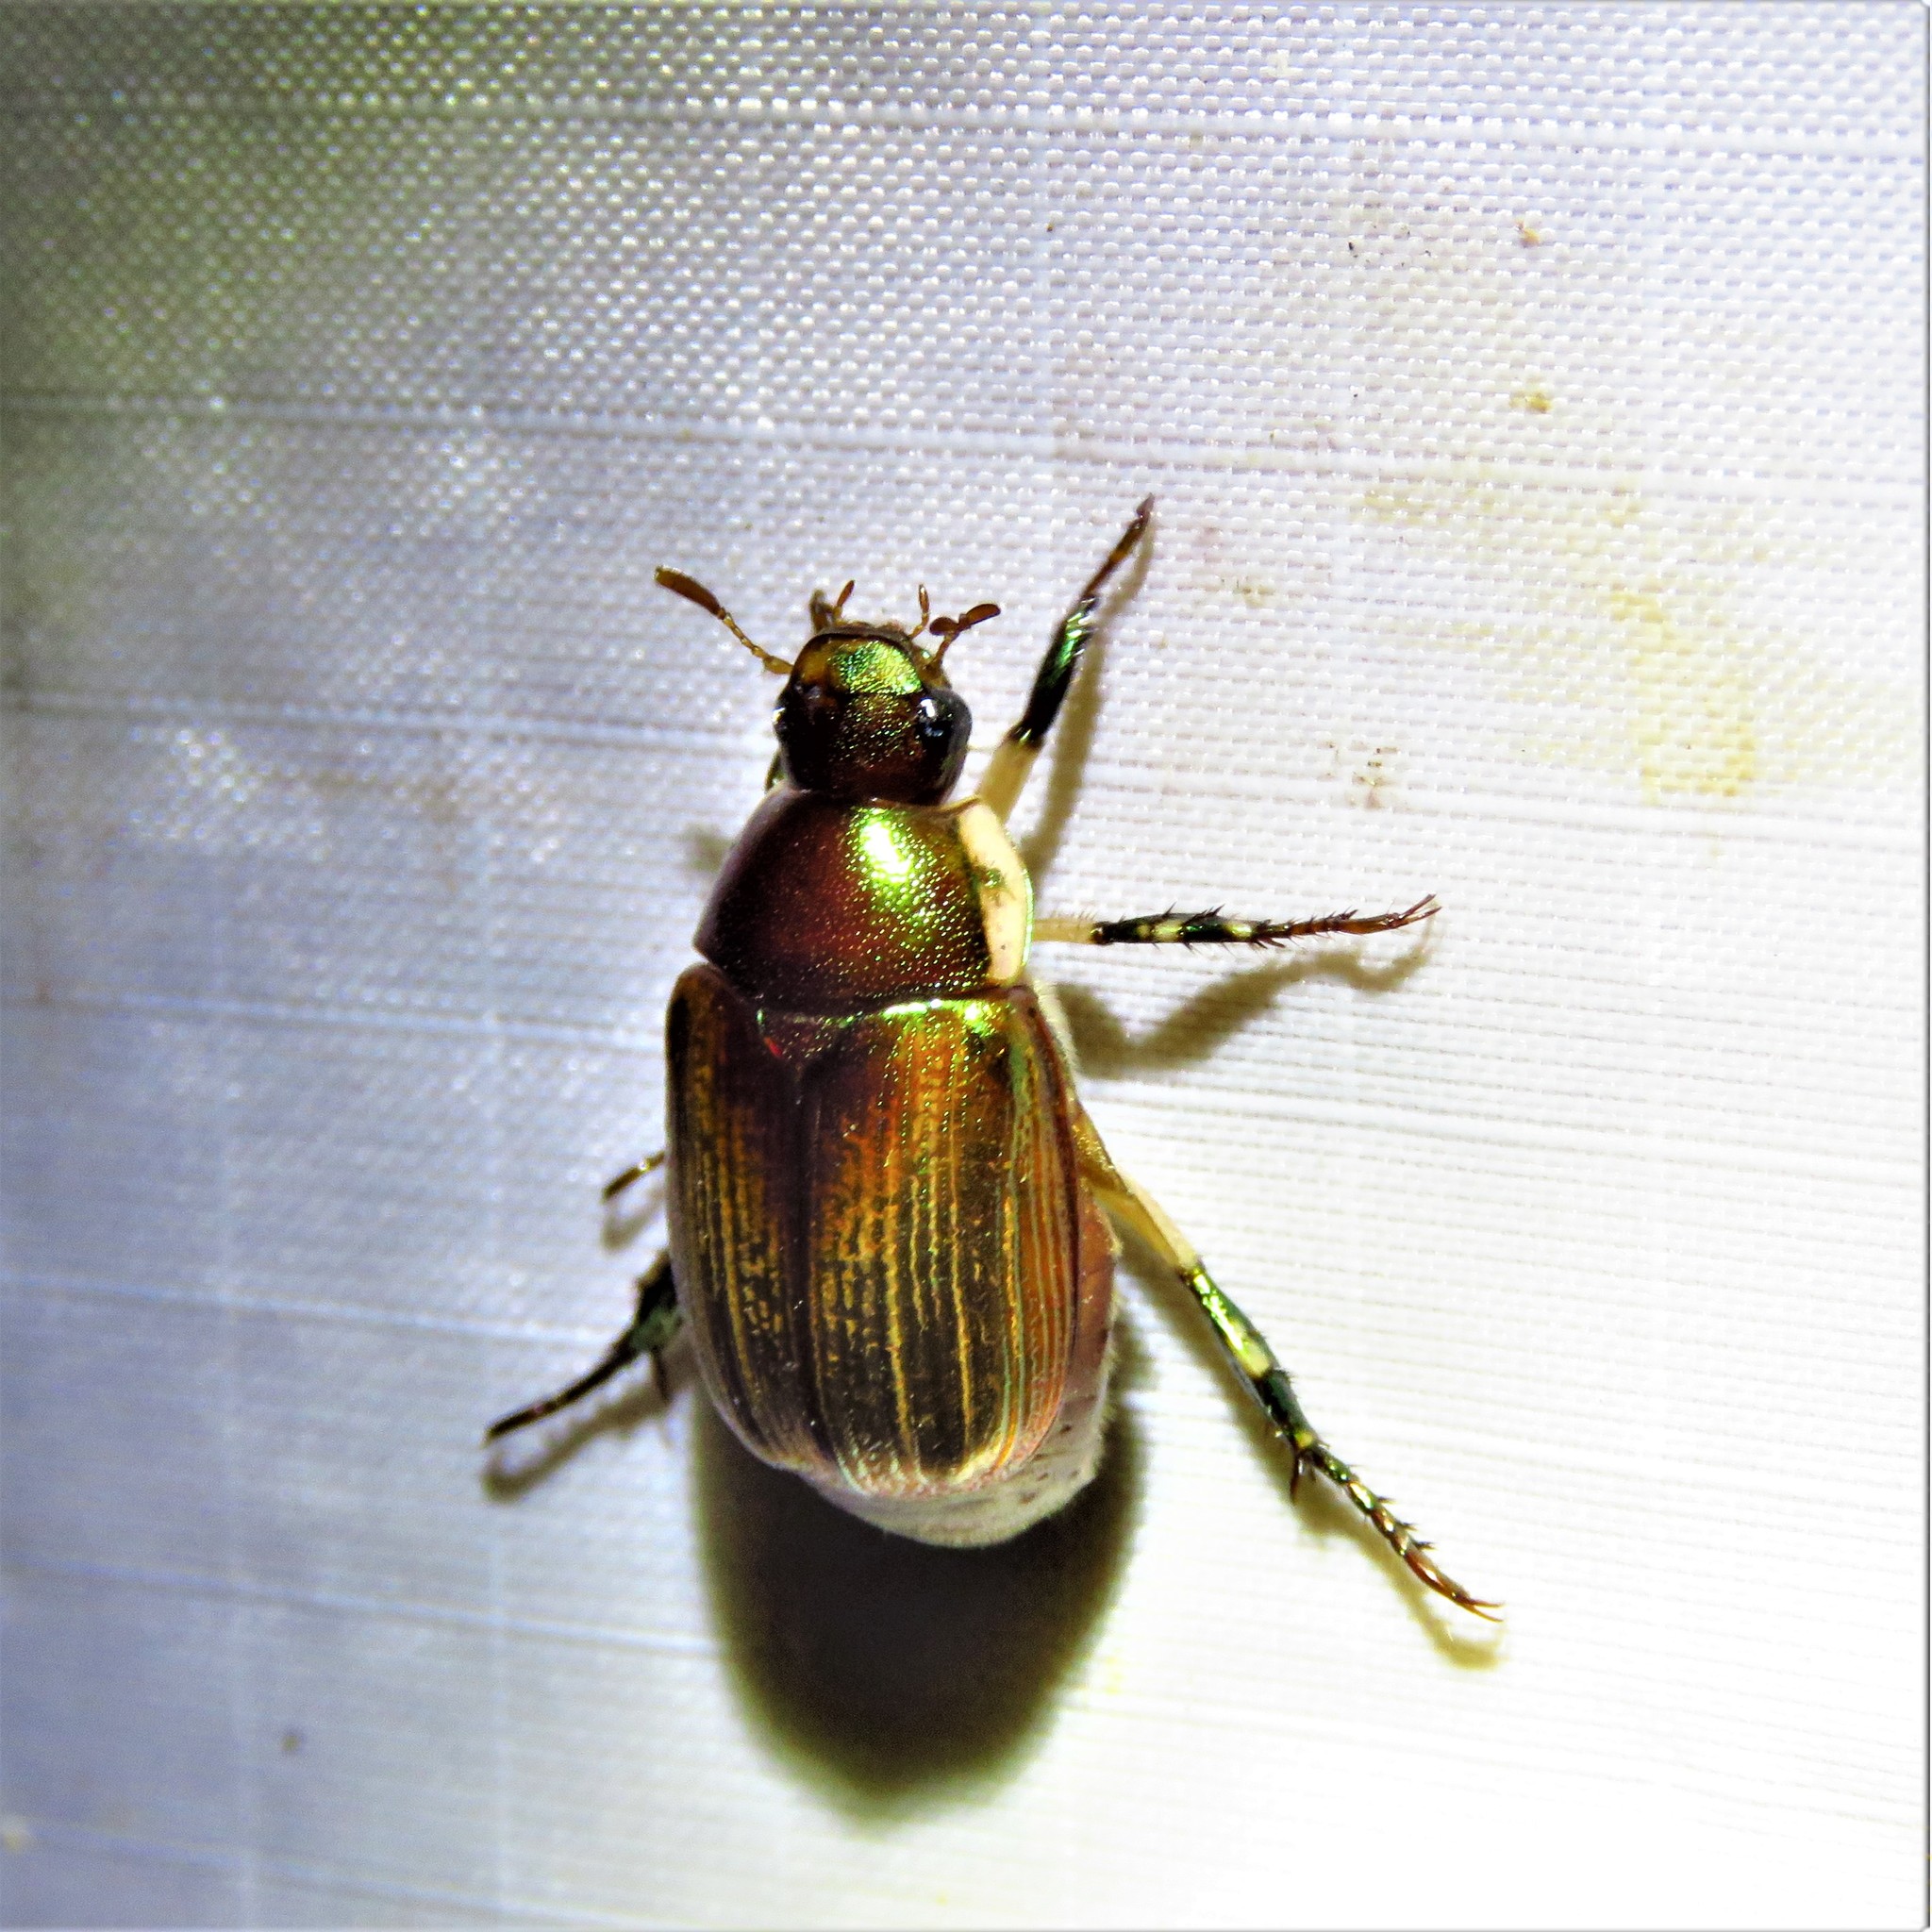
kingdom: Animalia
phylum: Arthropoda
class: Insecta
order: Coleoptera
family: Scarabaeidae
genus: Callistethus
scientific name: Callistethus marginatus
